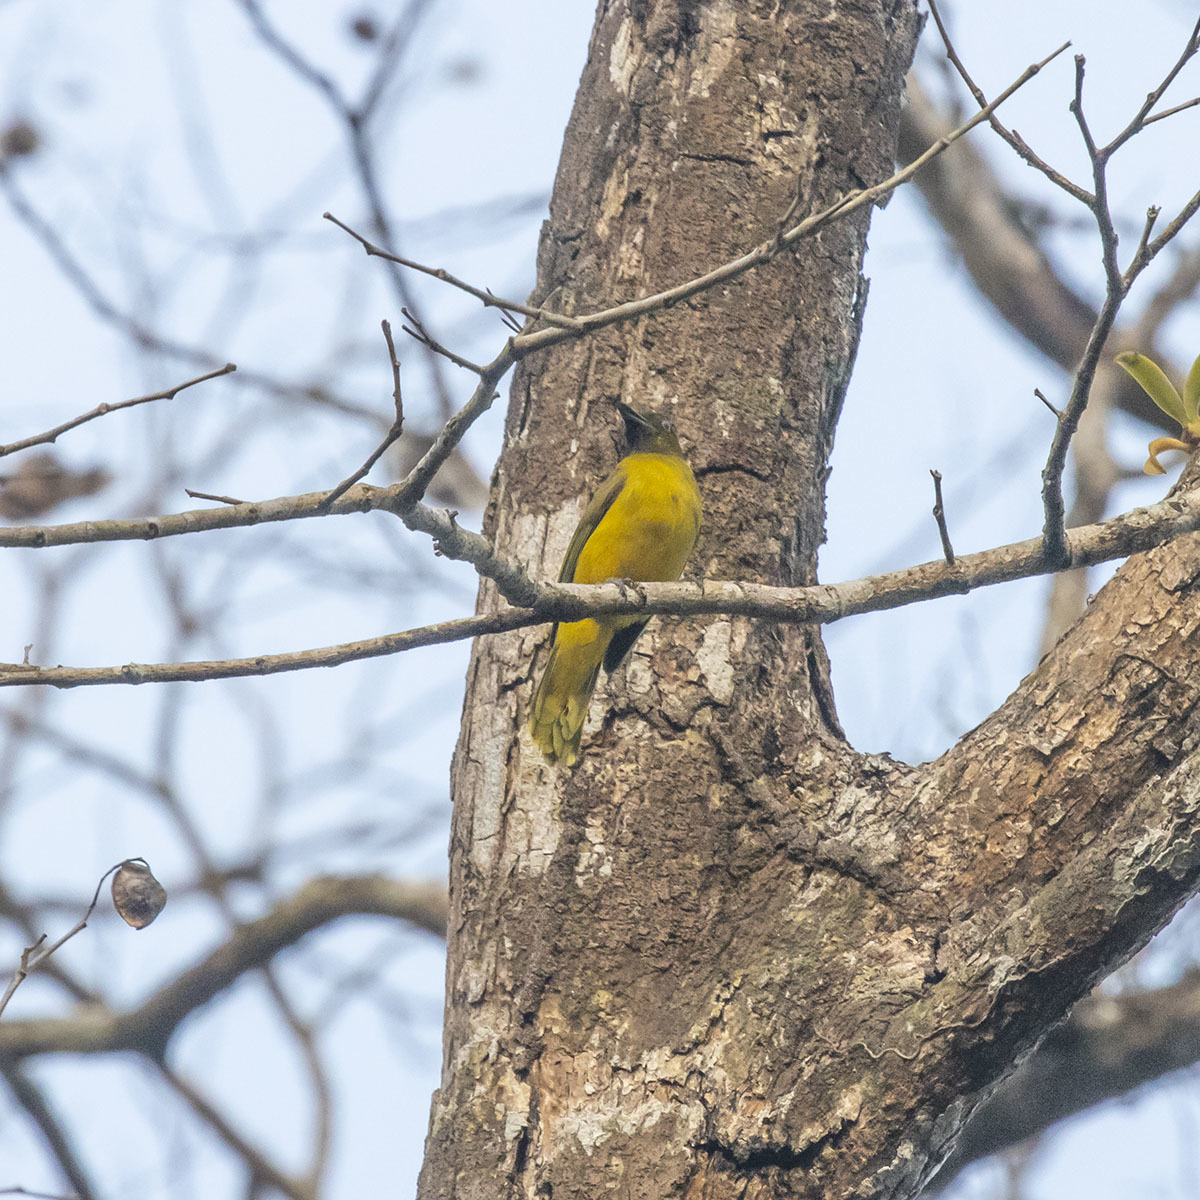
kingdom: Animalia
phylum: Chordata
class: Aves
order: Passeriformes
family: Pycnonotidae
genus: Microtarsus
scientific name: Microtarsus
